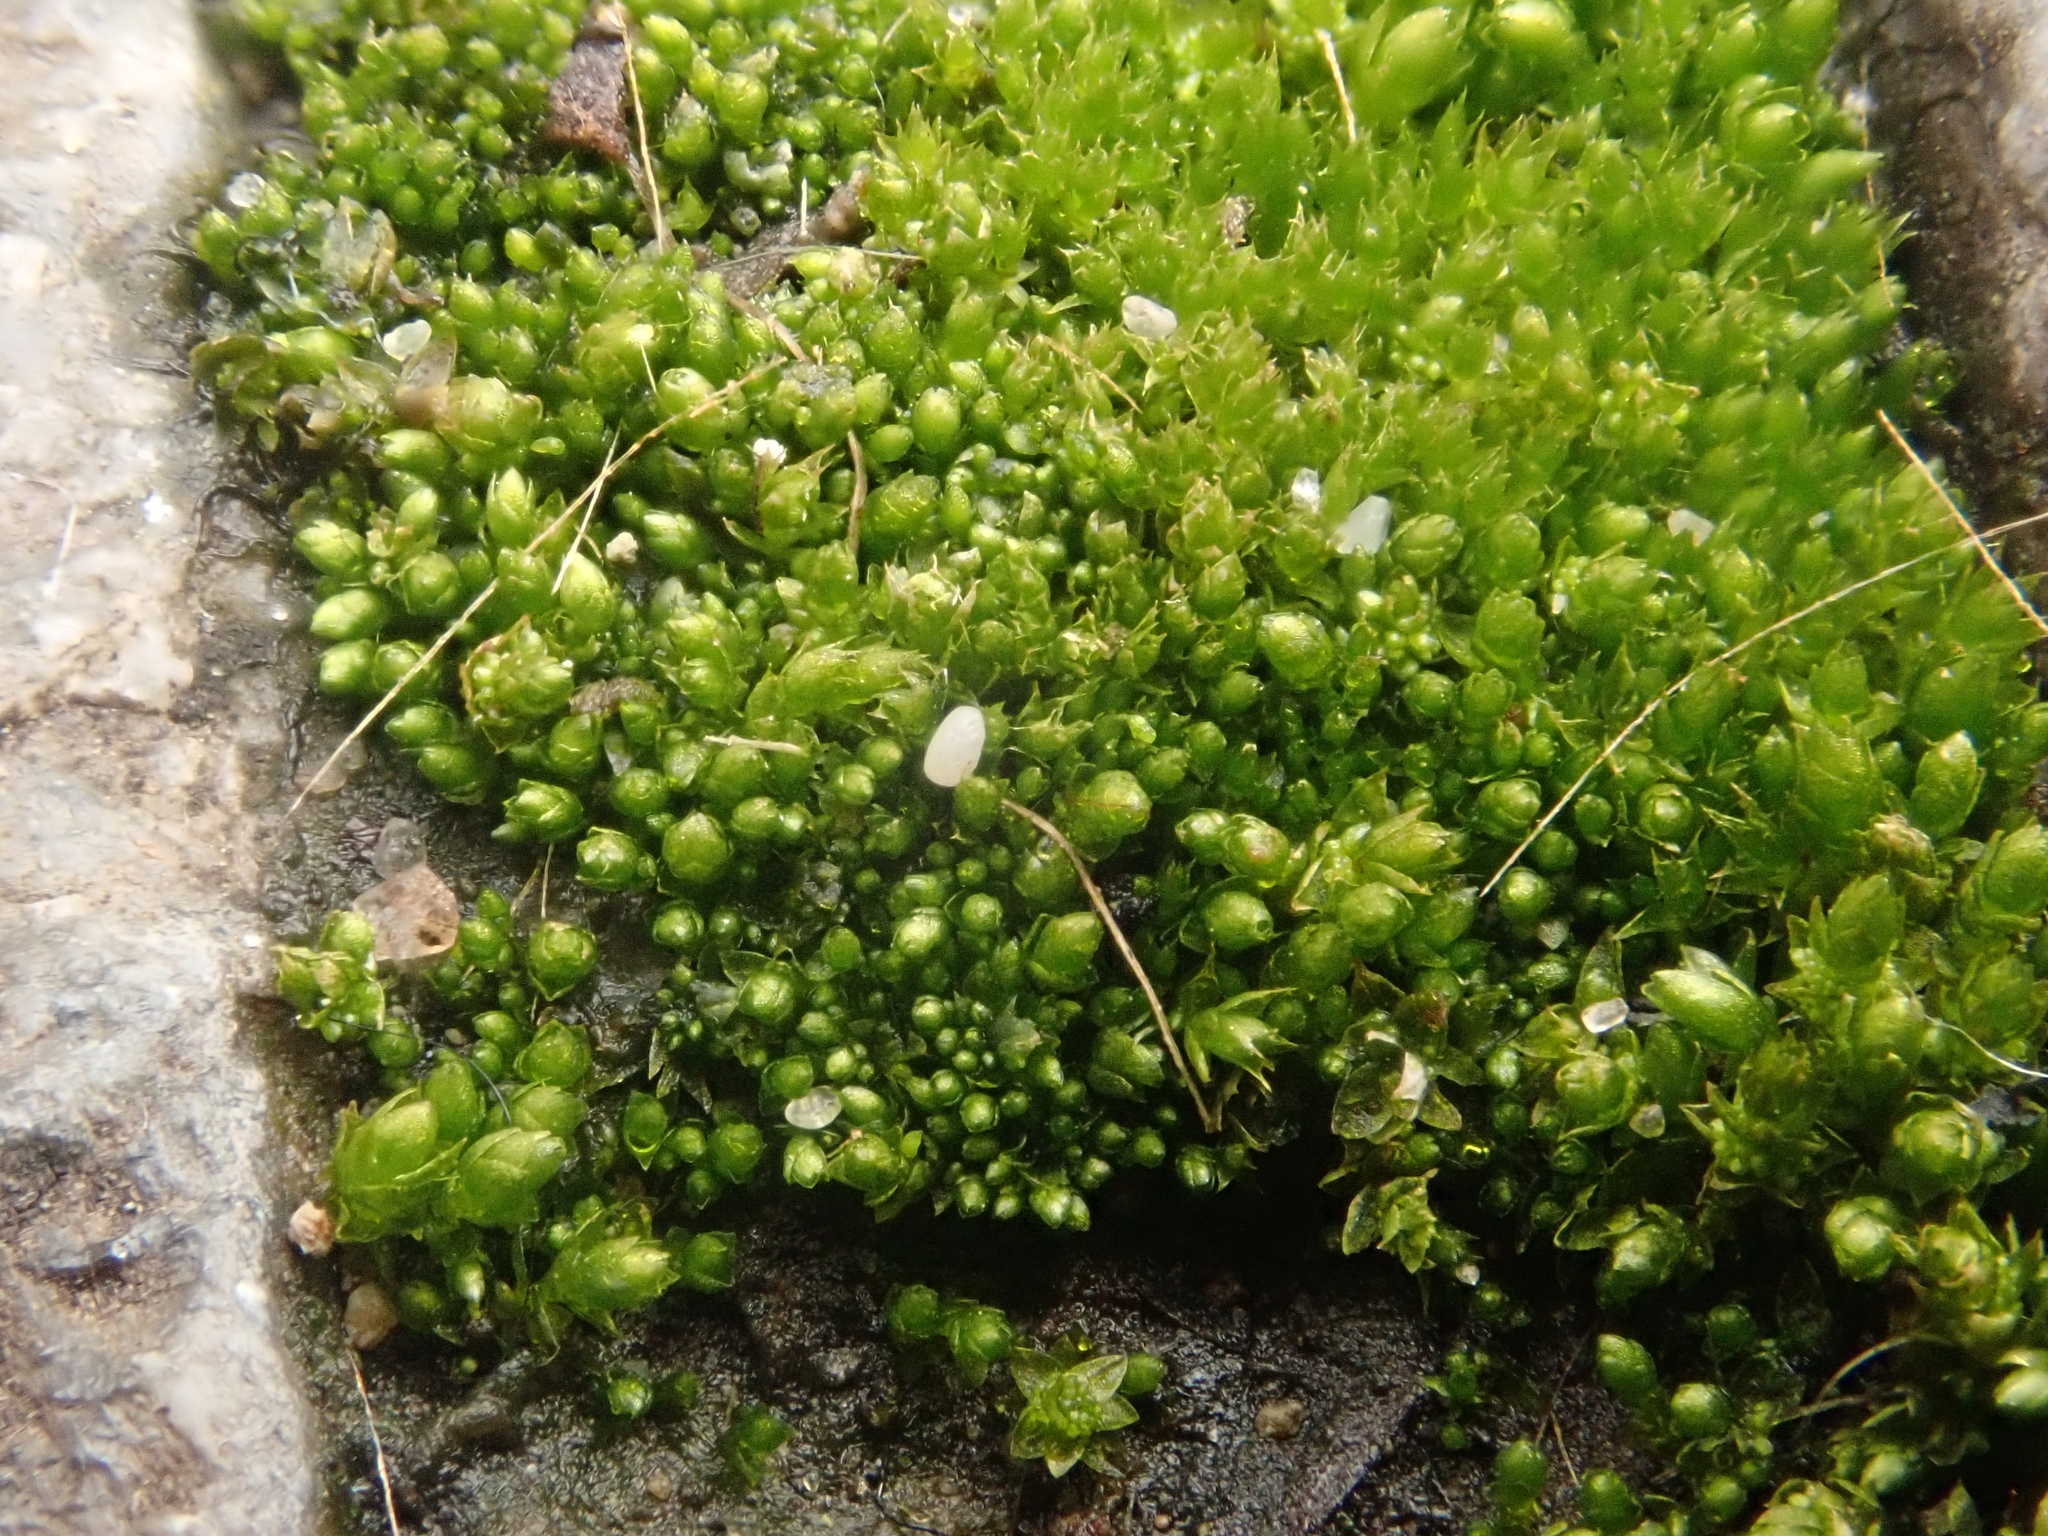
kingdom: Plantae
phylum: Bryophyta
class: Bryopsida
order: Bryales
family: Bryaceae
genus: Bryum
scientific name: Bryum argenteum
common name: Silver-moss
